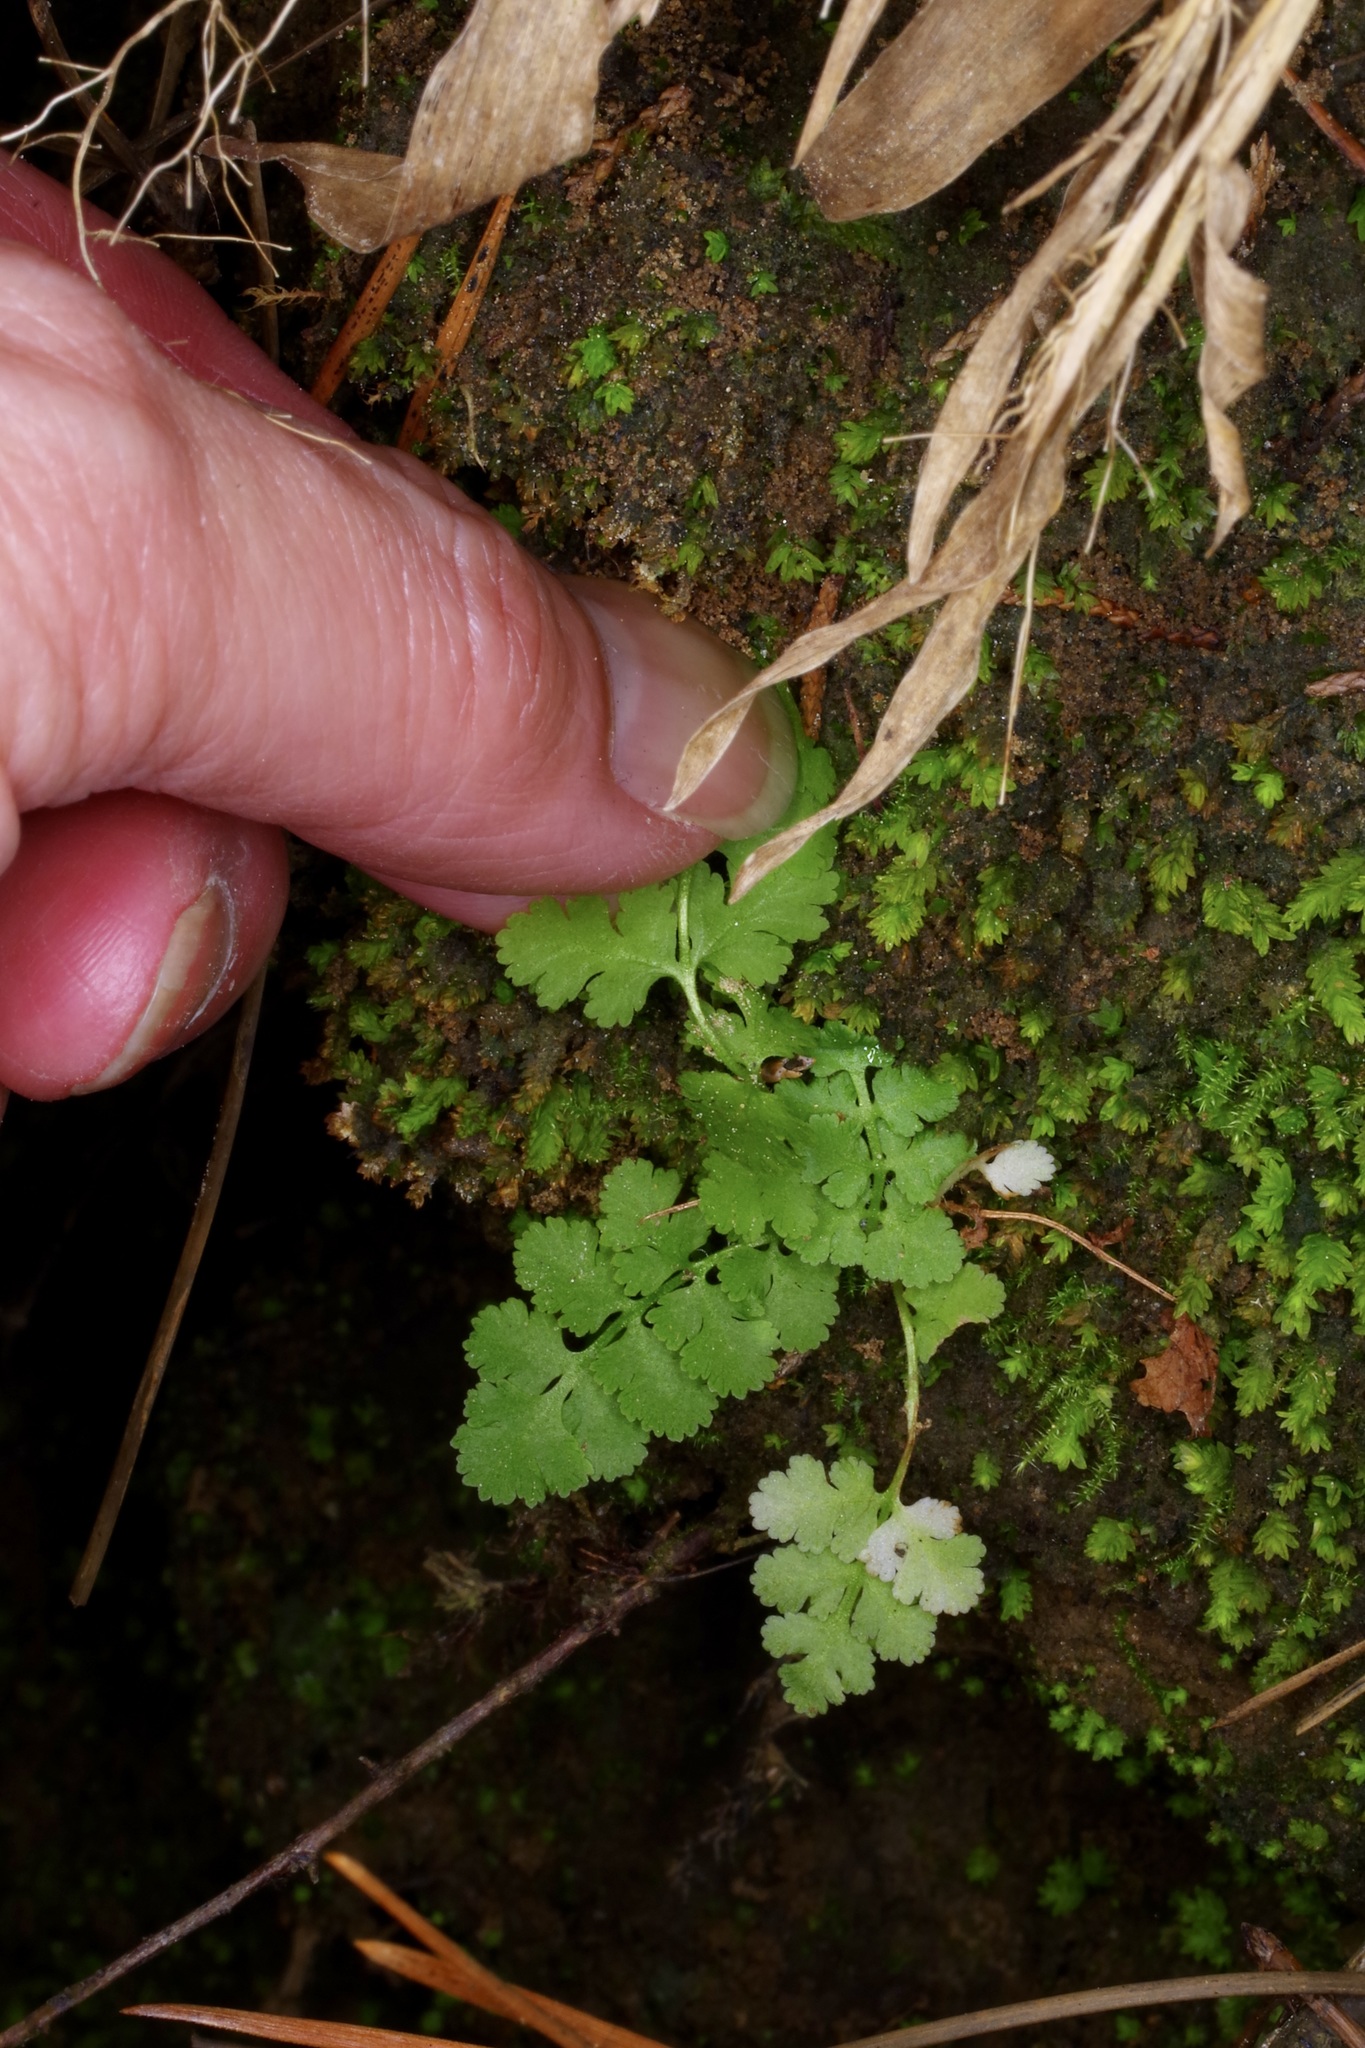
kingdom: Plantae
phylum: Tracheophyta
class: Polypodiopsida
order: Polypodiales
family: Woodsiaceae
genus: Physematium
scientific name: Physematium obtusum
